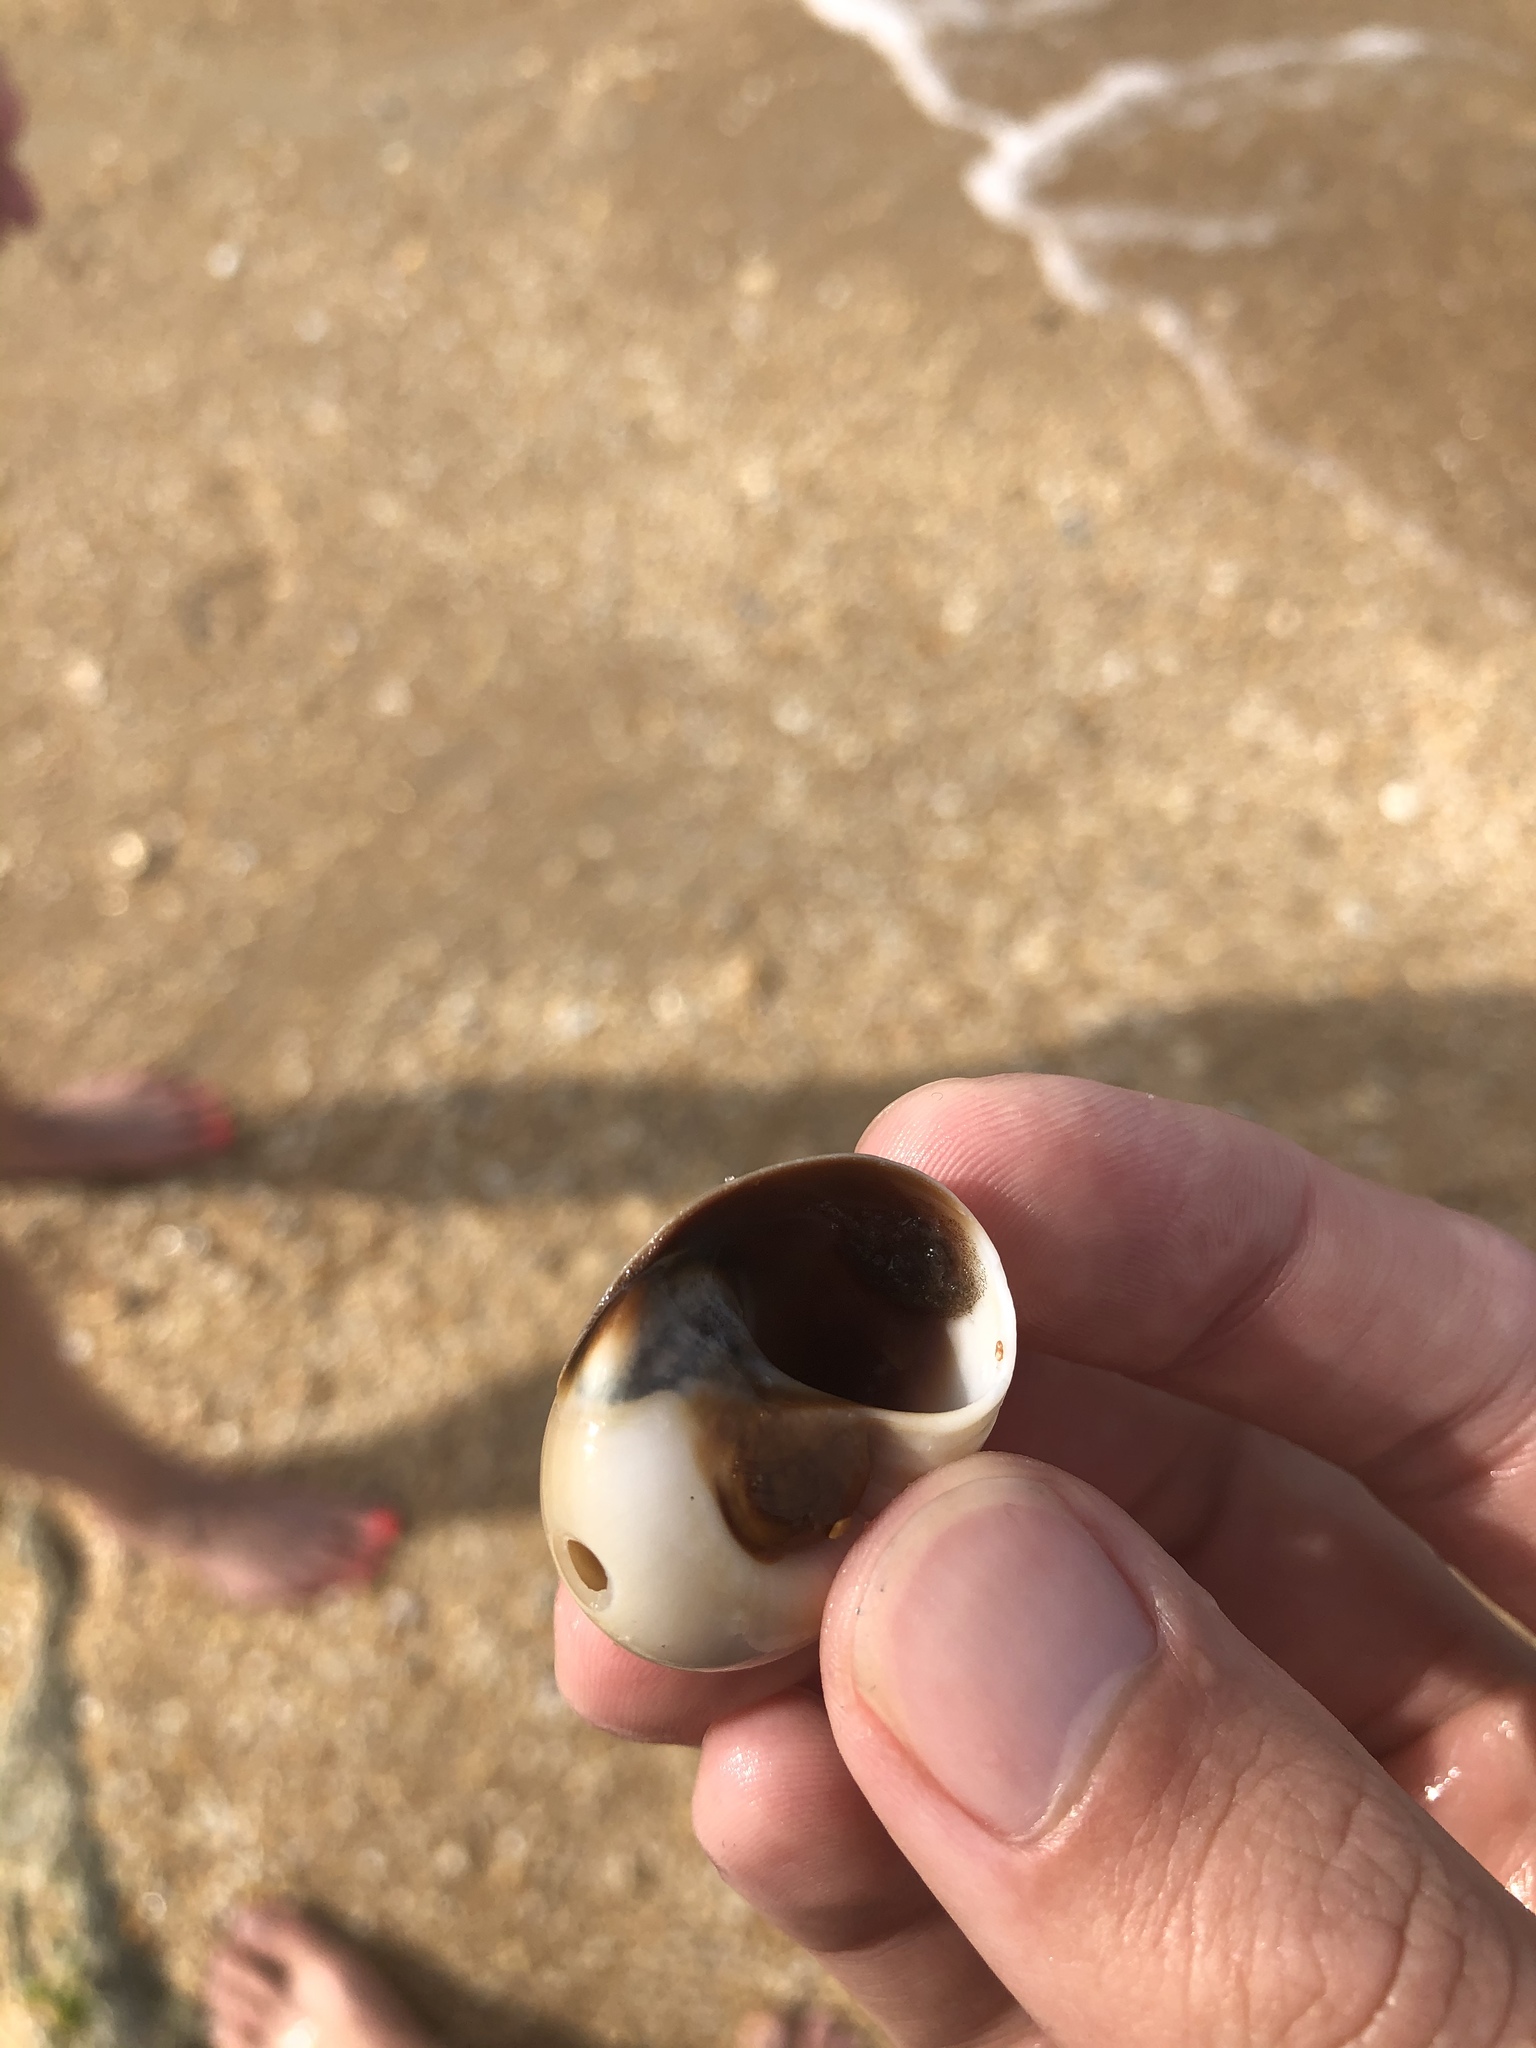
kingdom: Animalia
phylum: Mollusca
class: Gastropoda
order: Littorinimorpha
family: Naticidae
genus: Neverita
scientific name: Neverita duplicata
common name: Lobed moonsnail
